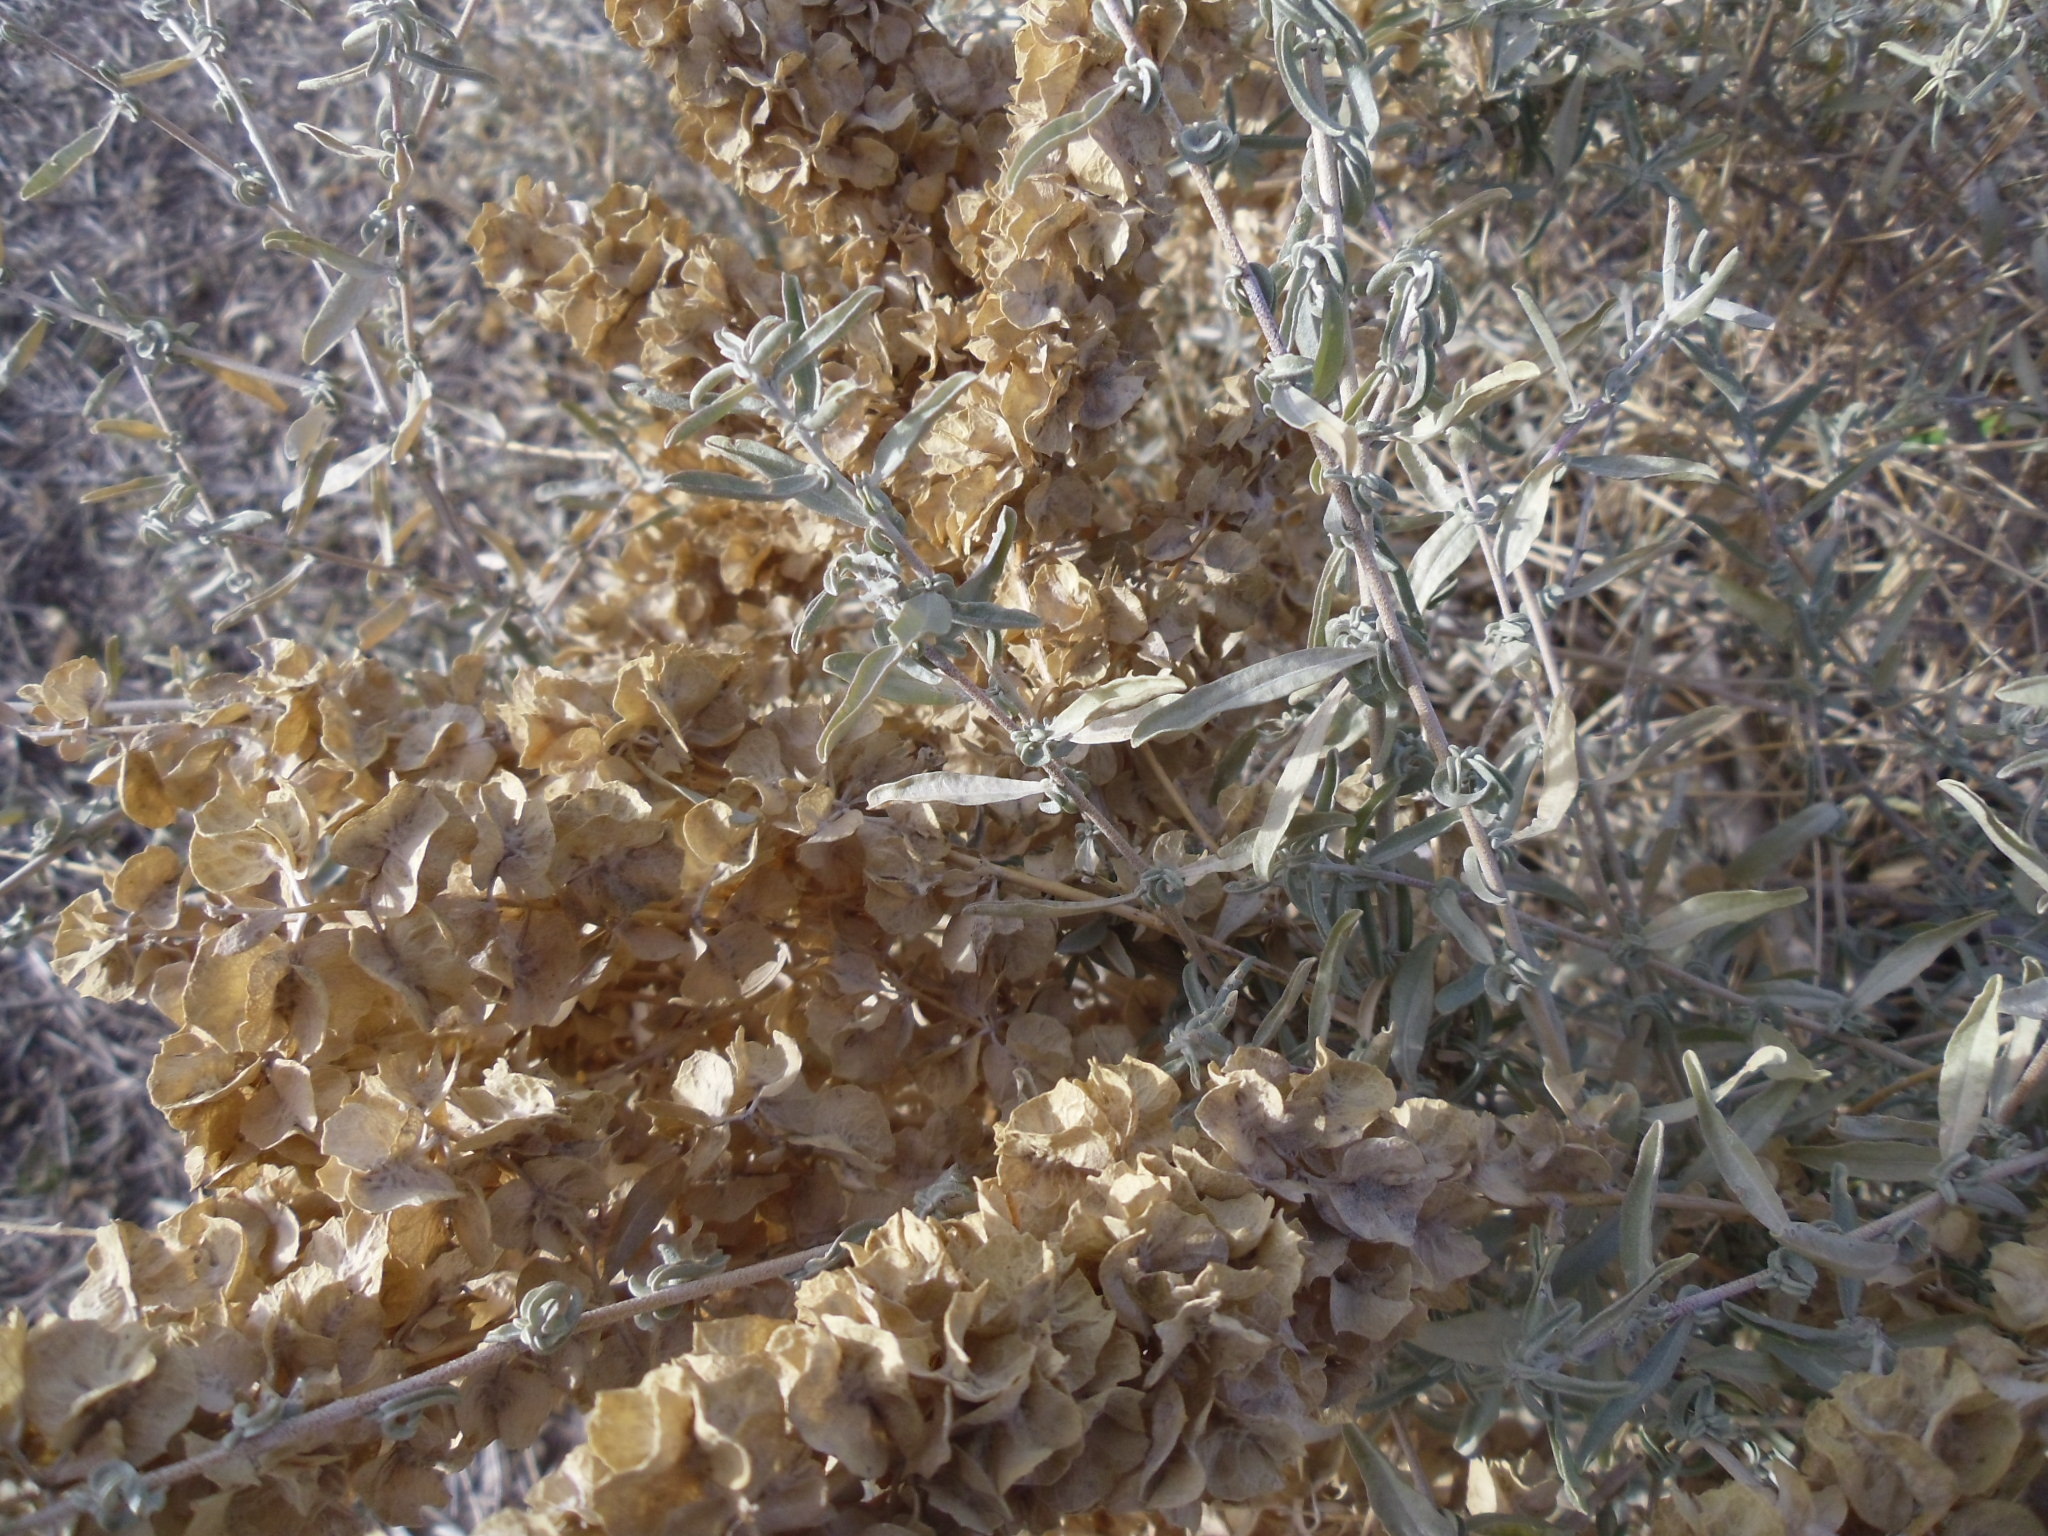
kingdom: Plantae
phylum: Tracheophyta
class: Magnoliopsida
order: Caryophyllales
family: Amaranthaceae
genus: Atriplex
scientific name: Atriplex canescens
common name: Four-wing saltbush
